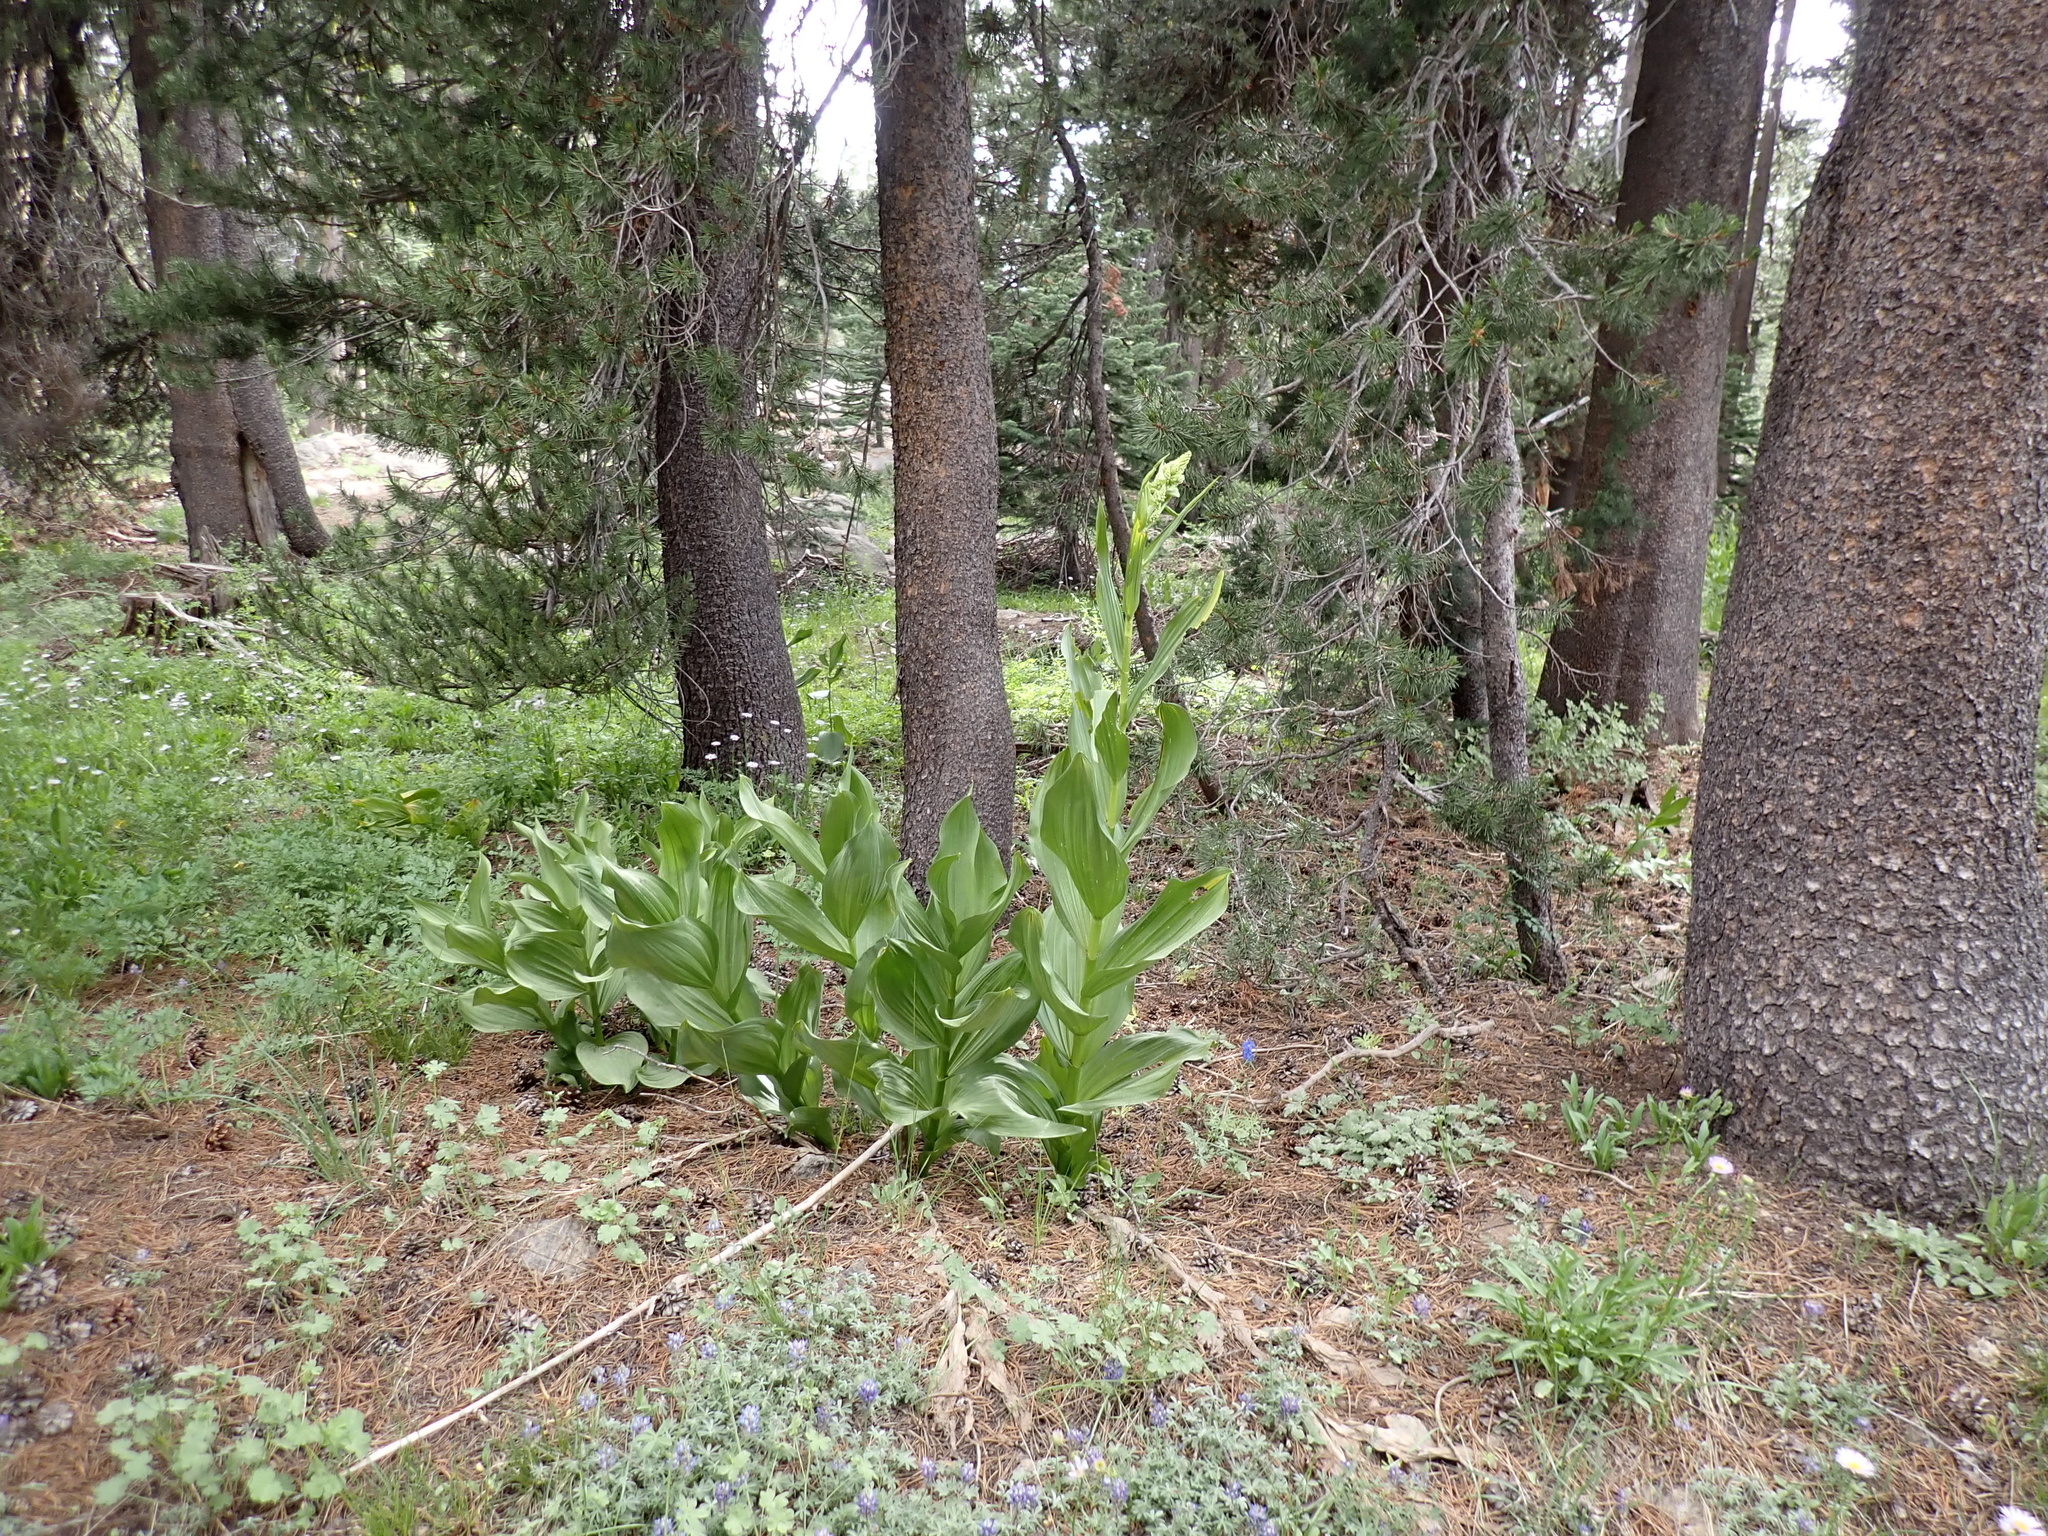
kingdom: Plantae
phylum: Tracheophyta
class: Liliopsida
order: Liliales
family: Melanthiaceae
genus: Veratrum
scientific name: Veratrum californicum
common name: California veratrum
